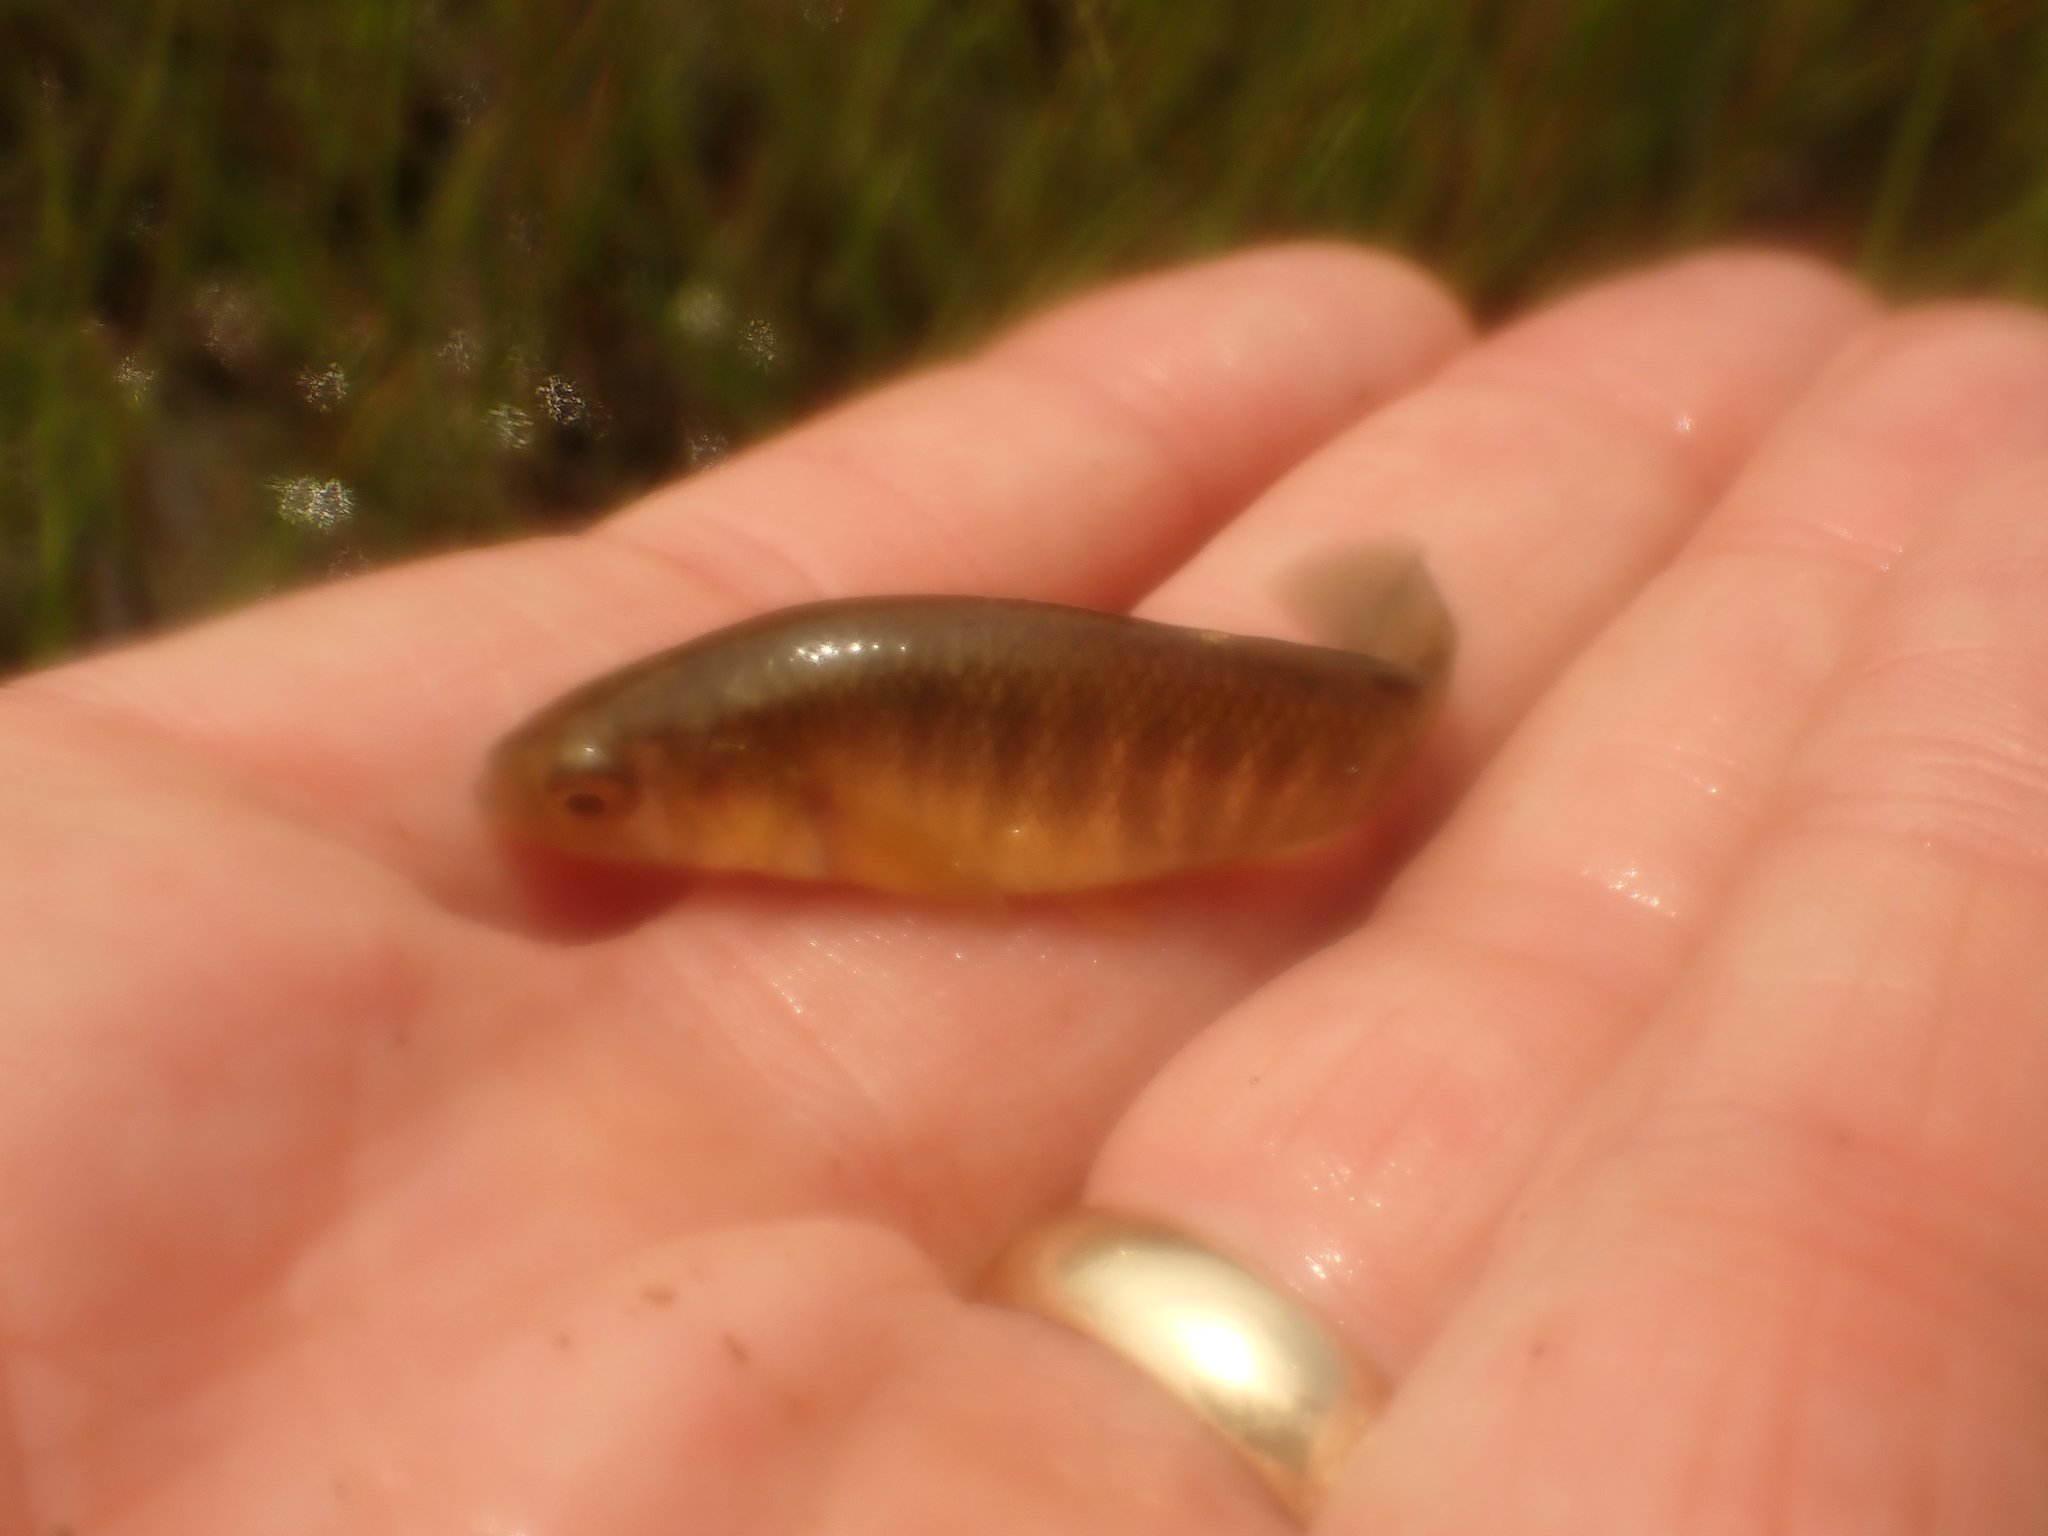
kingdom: Animalia
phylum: Chordata
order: Cyprinodontiformes
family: Fundulidae
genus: Fundulus
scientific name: Fundulus heteroclitus
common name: Mummichog
